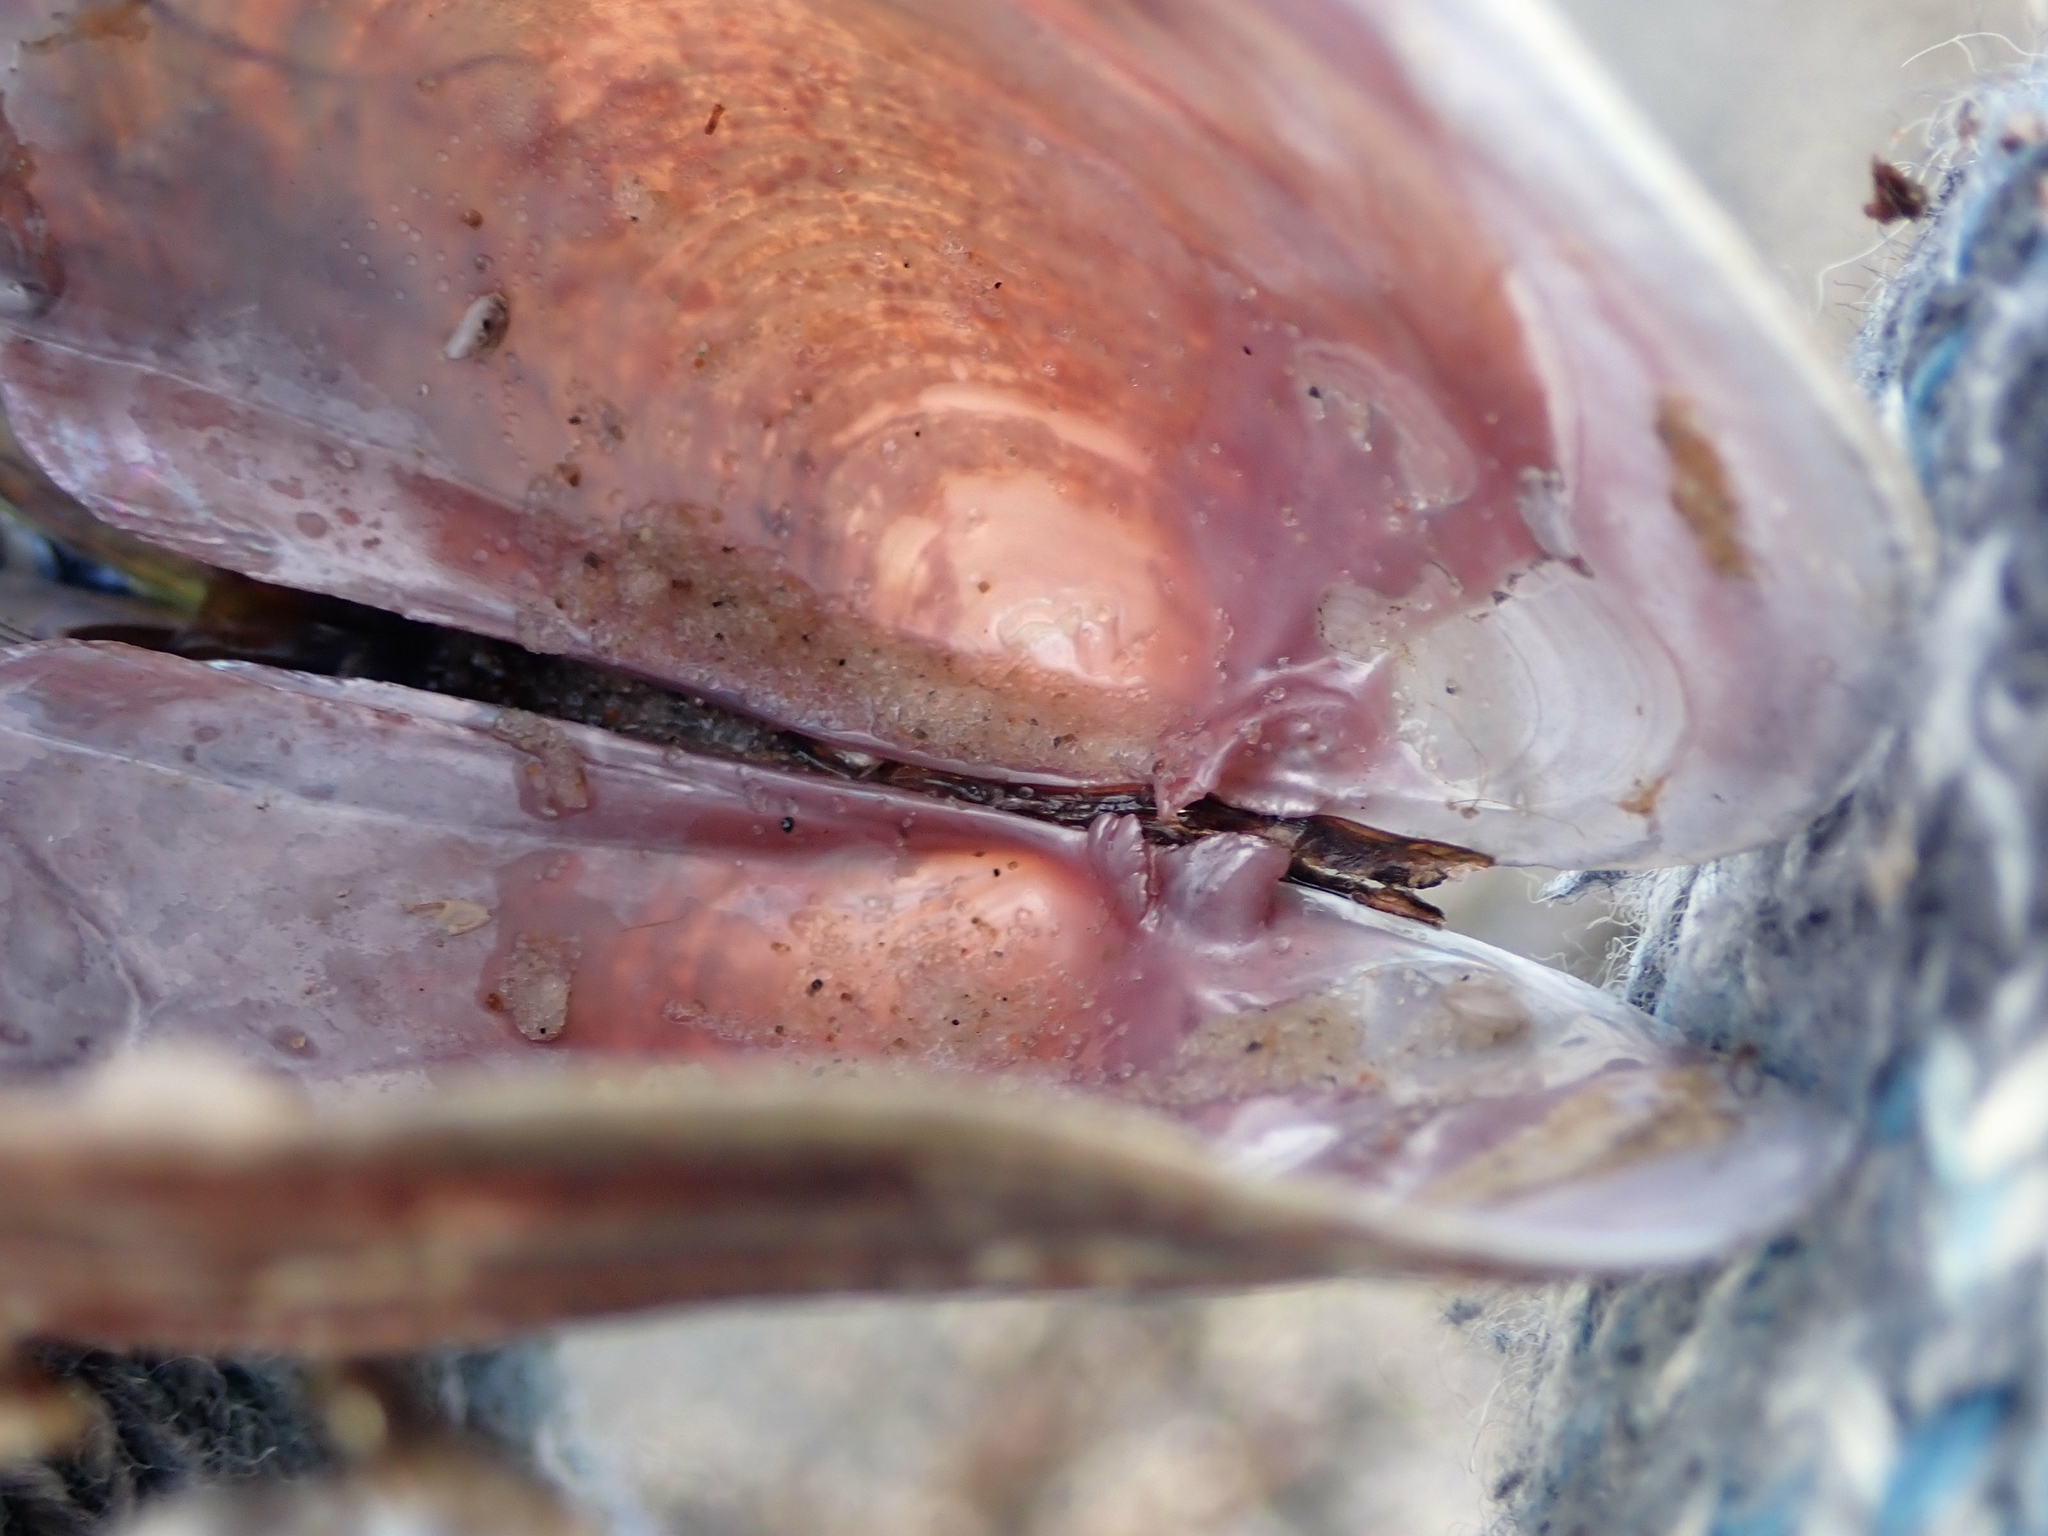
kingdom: Animalia
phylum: Mollusca
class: Bivalvia
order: Unionida
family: Unionidae
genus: Potamilus
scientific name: Potamilus alatus
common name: Pink heelsplitter
